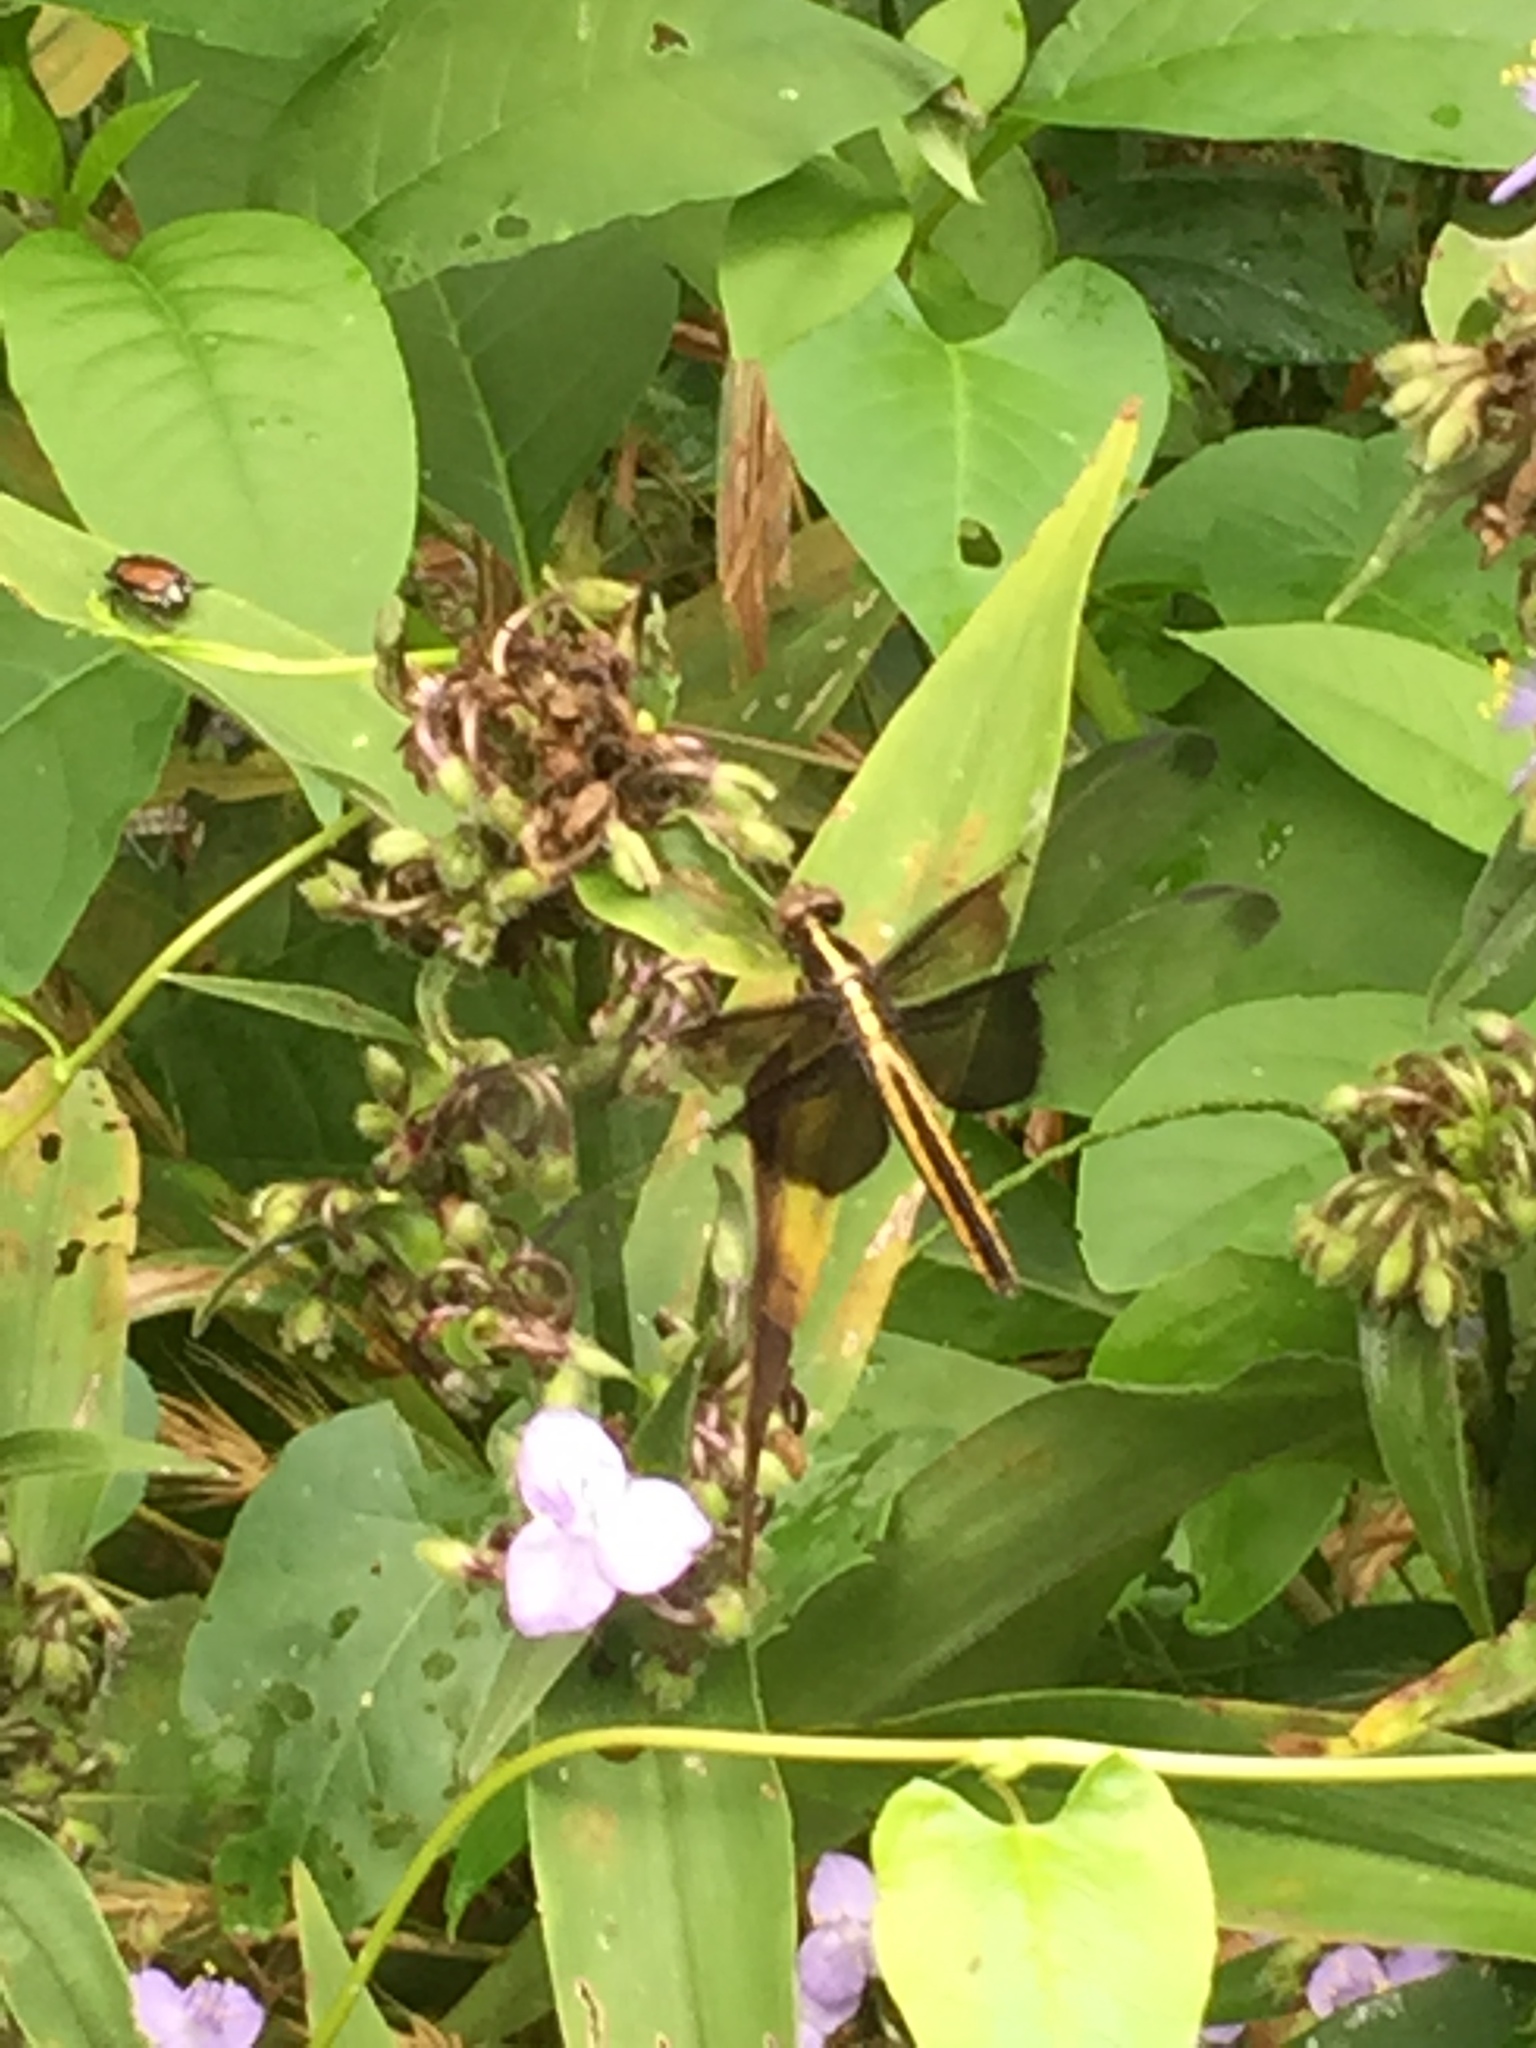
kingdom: Animalia
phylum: Arthropoda
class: Insecta
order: Odonata
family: Libellulidae
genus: Libellula
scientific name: Libellula luctuosa
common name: Widow skimmer
